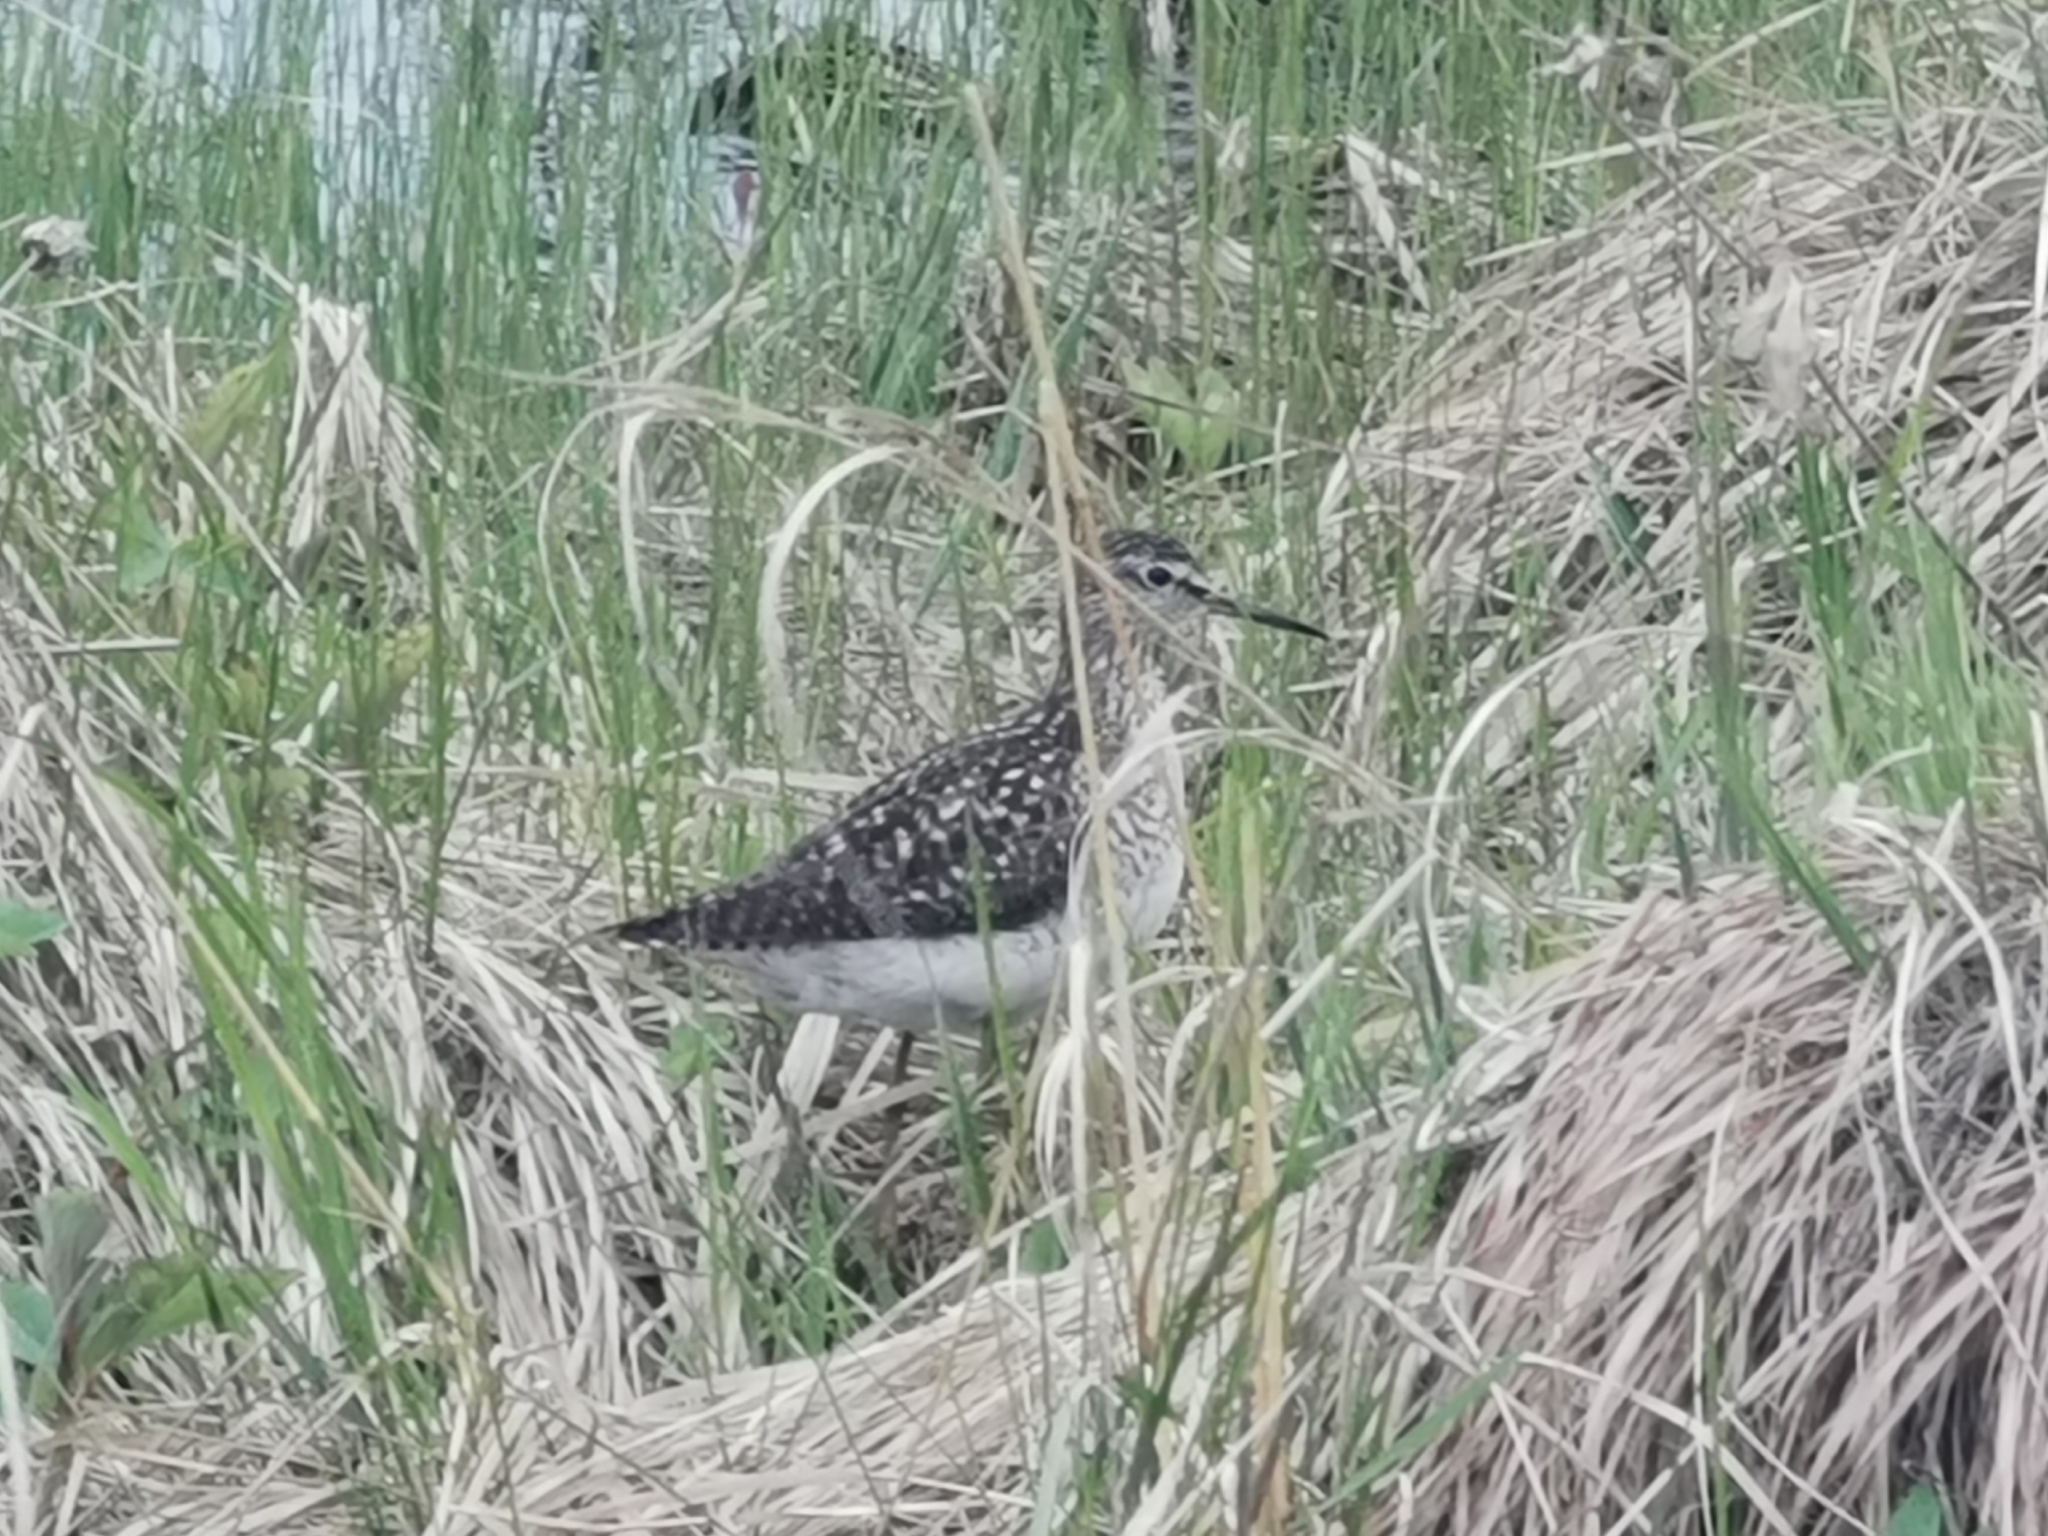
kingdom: Animalia
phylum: Chordata
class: Aves
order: Charadriiformes
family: Scolopacidae
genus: Tringa
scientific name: Tringa glareola
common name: Wood sandpiper
